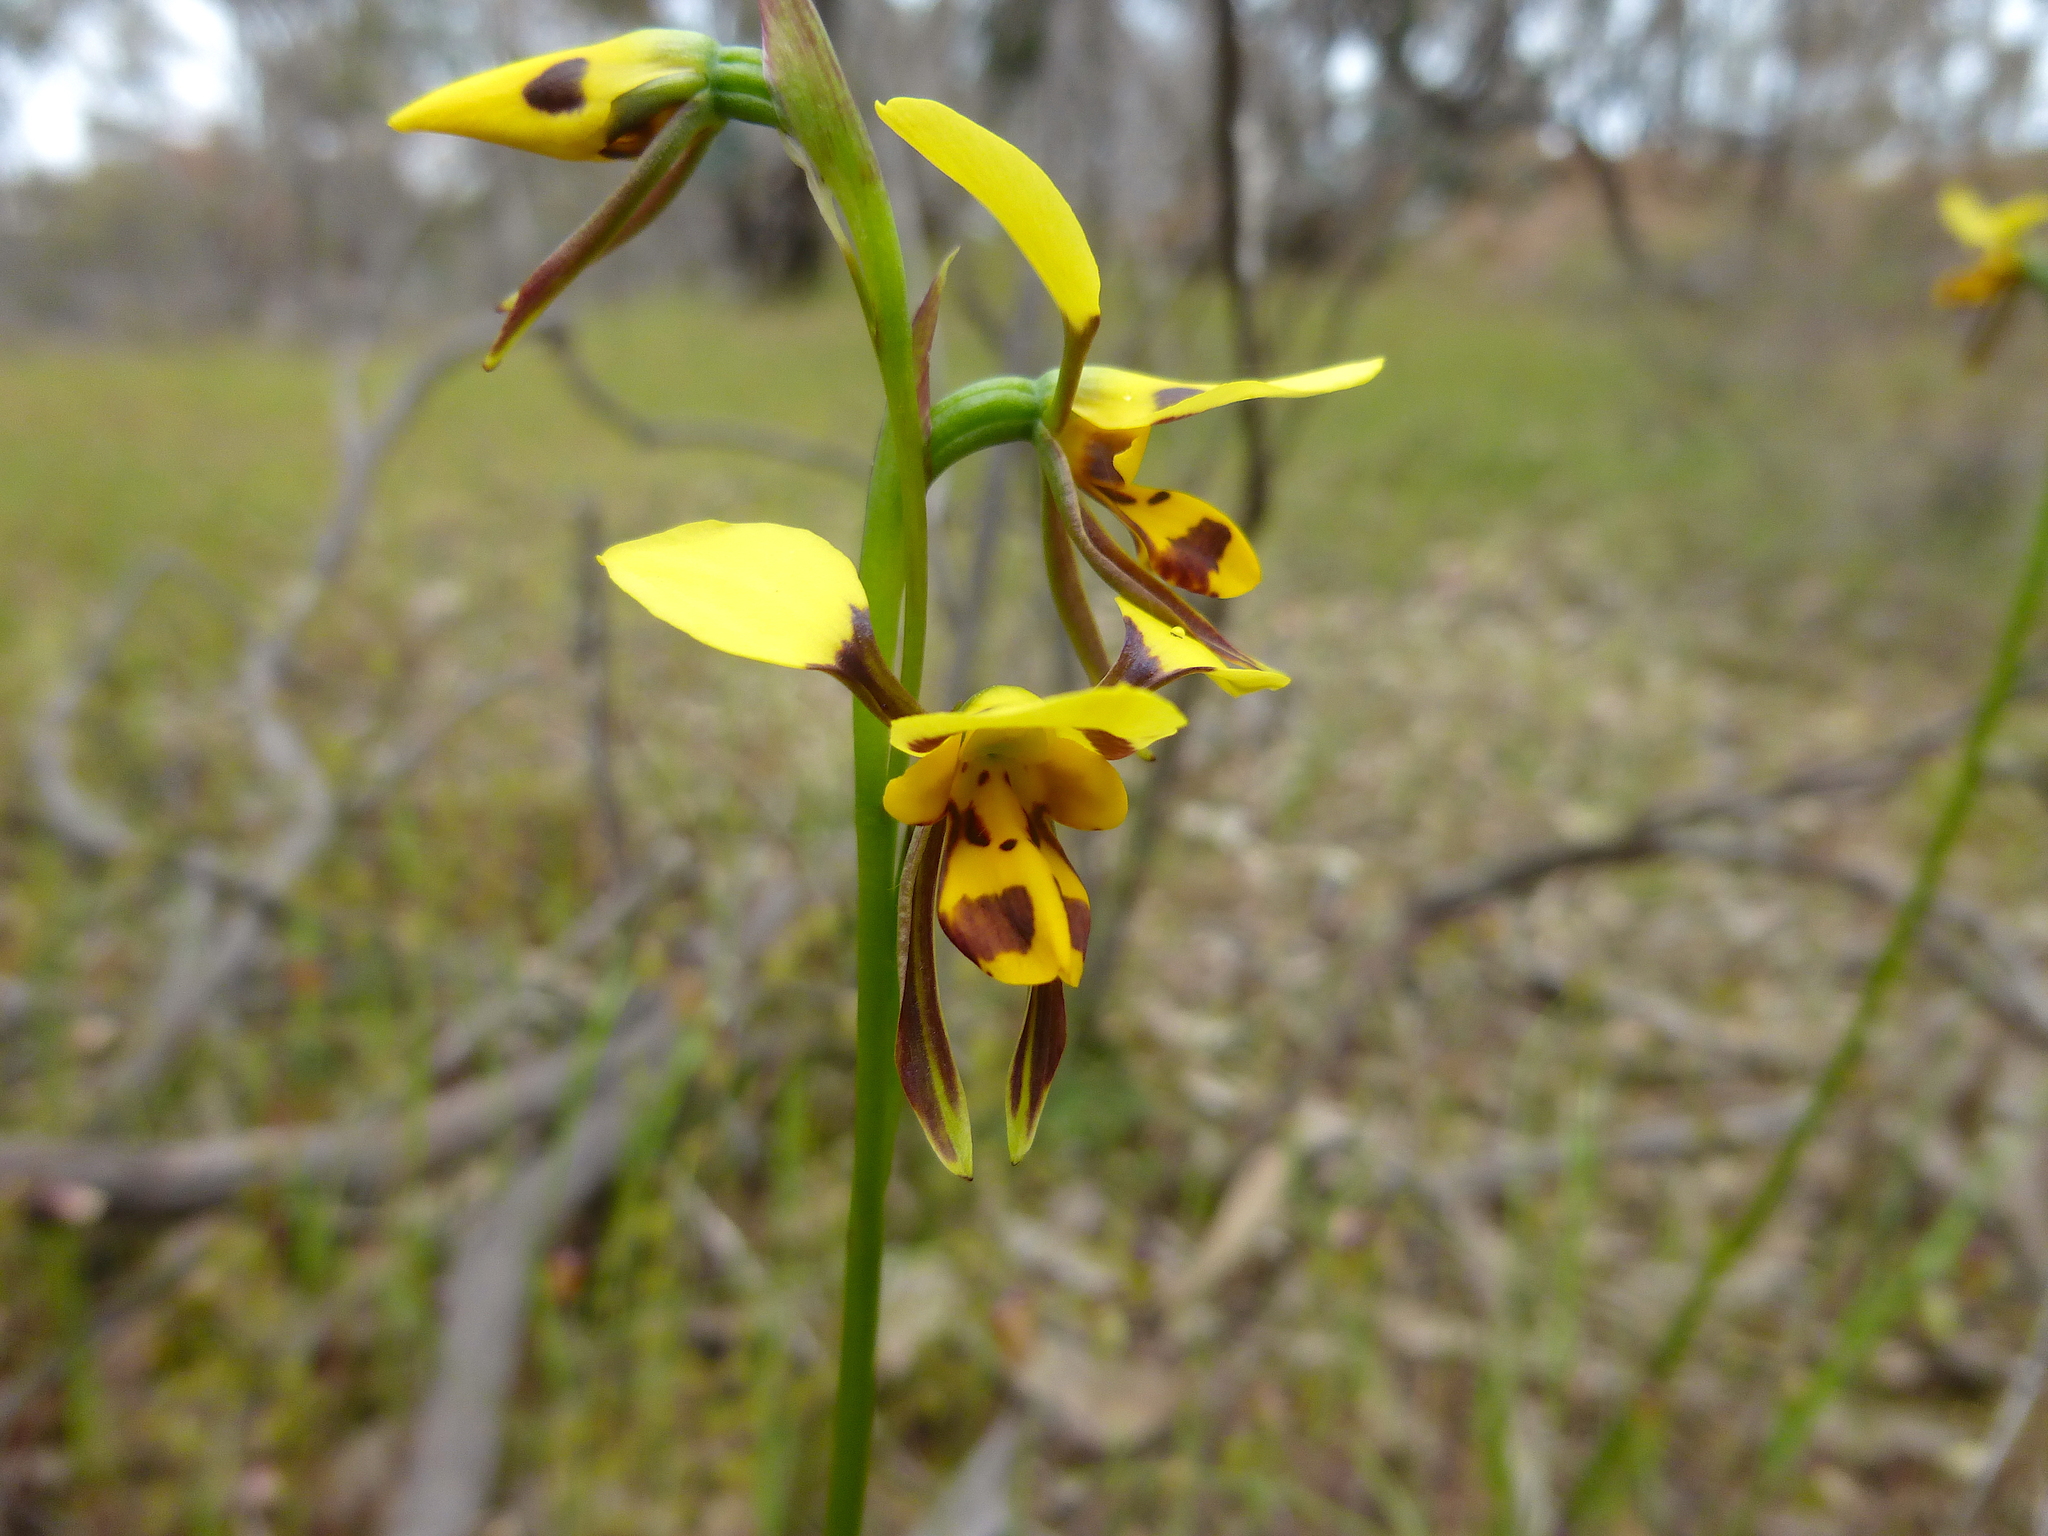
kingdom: Plantae
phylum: Tracheophyta
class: Liliopsida
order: Asparagales
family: Orchidaceae
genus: Diuris
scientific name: Diuris sulphurea
